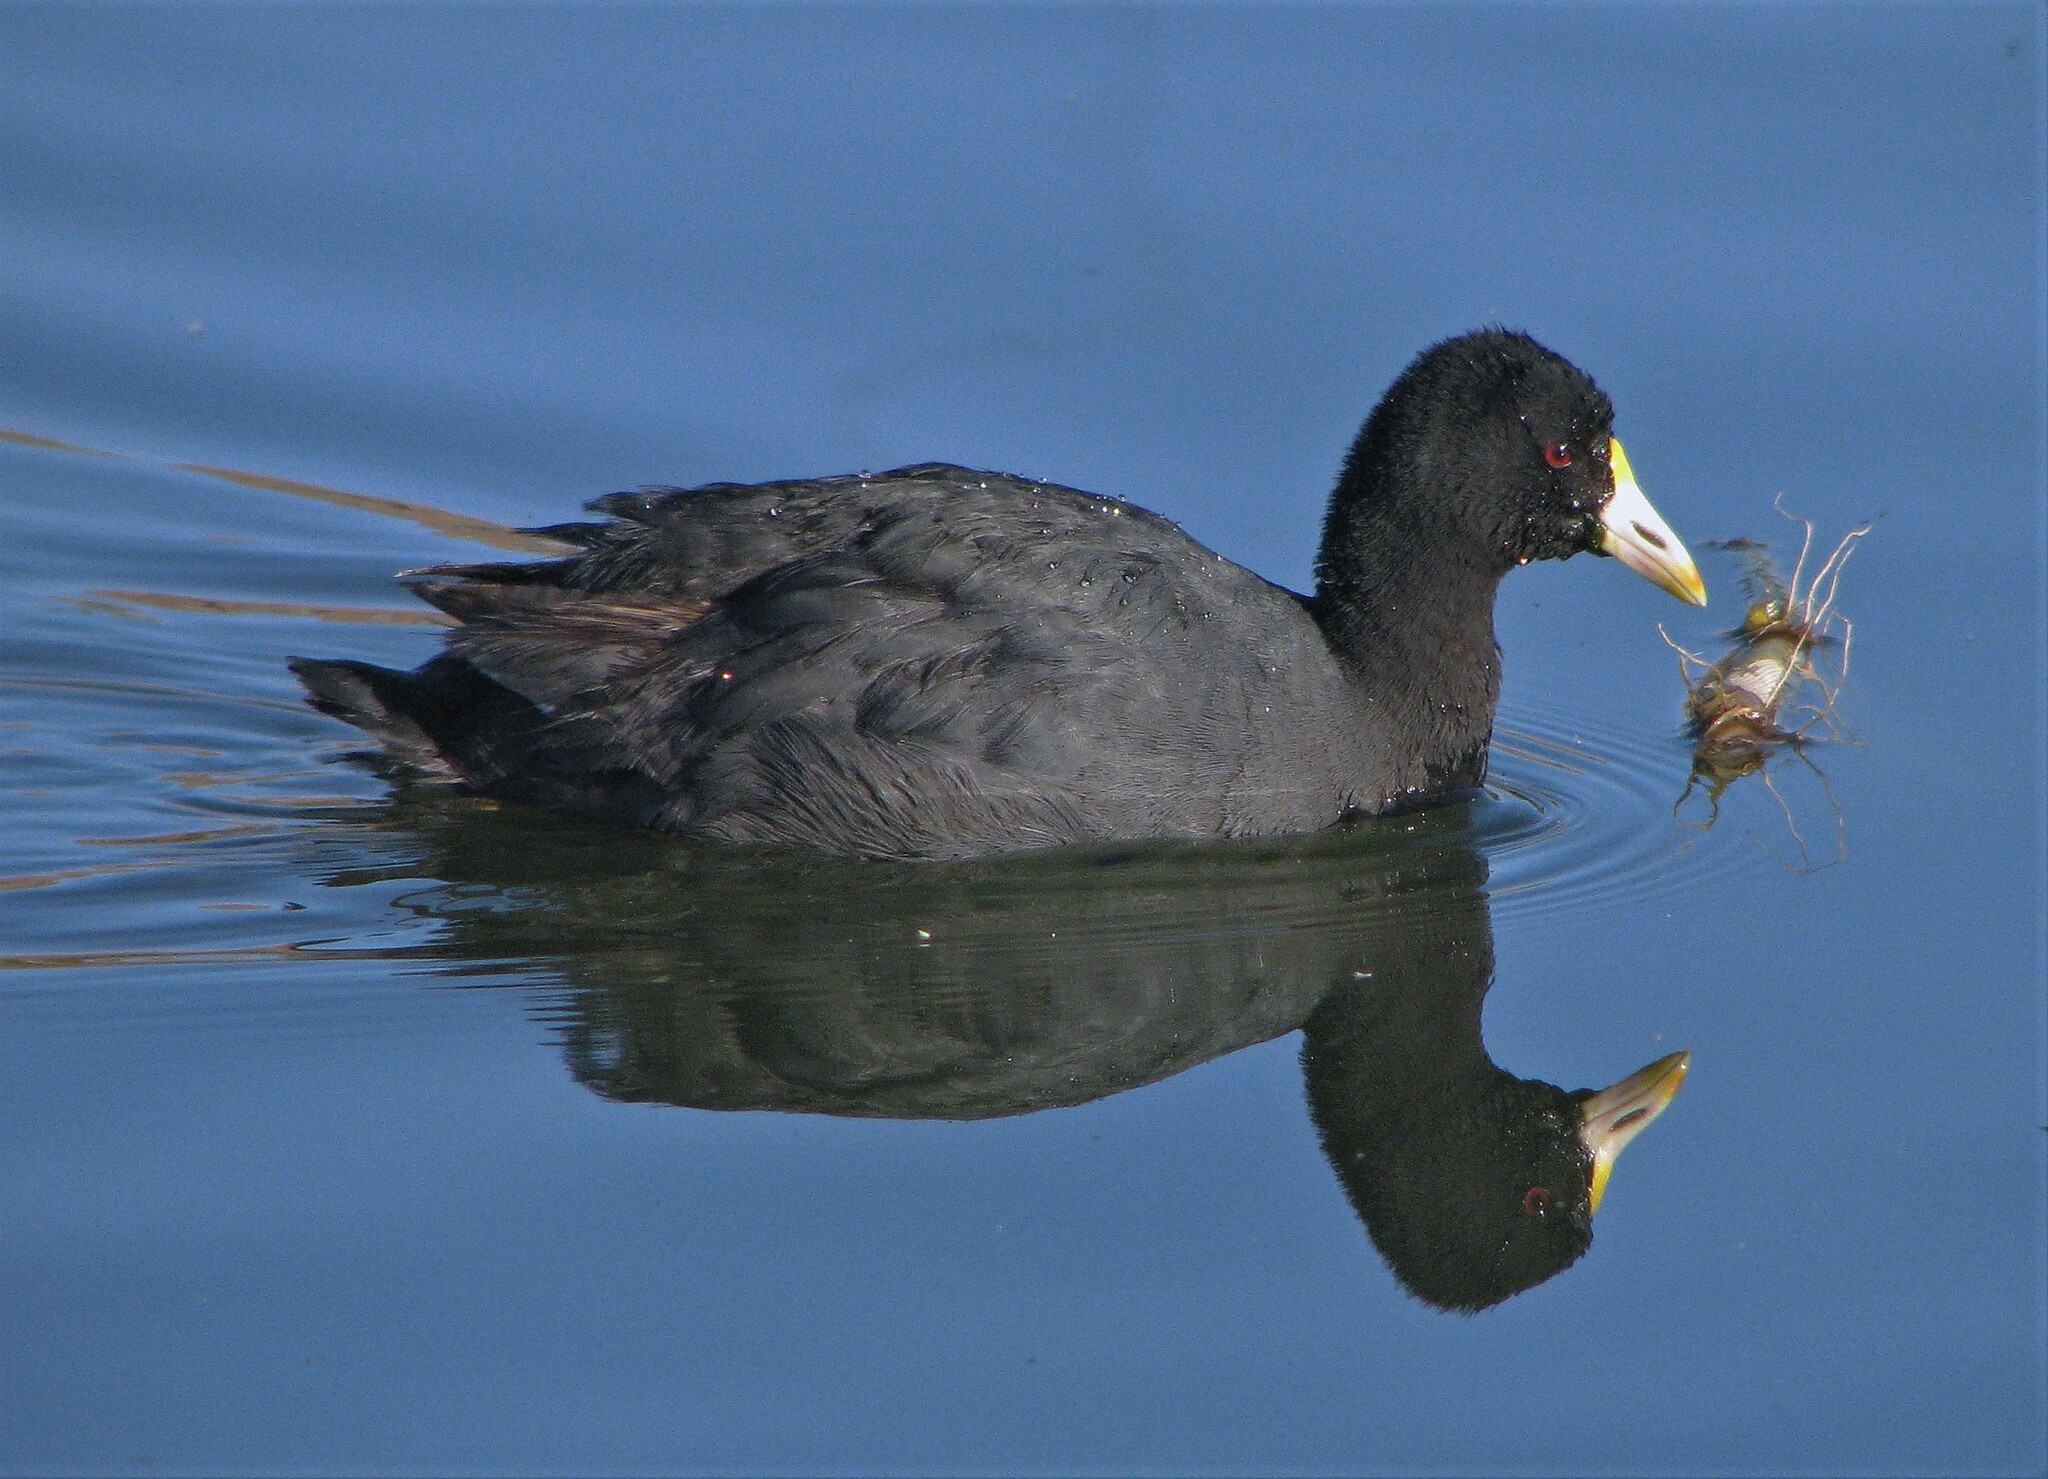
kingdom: Animalia
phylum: Chordata
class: Aves
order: Gruiformes
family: Rallidae
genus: Fulica
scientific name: Fulica leucoptera
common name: White-winged coot
